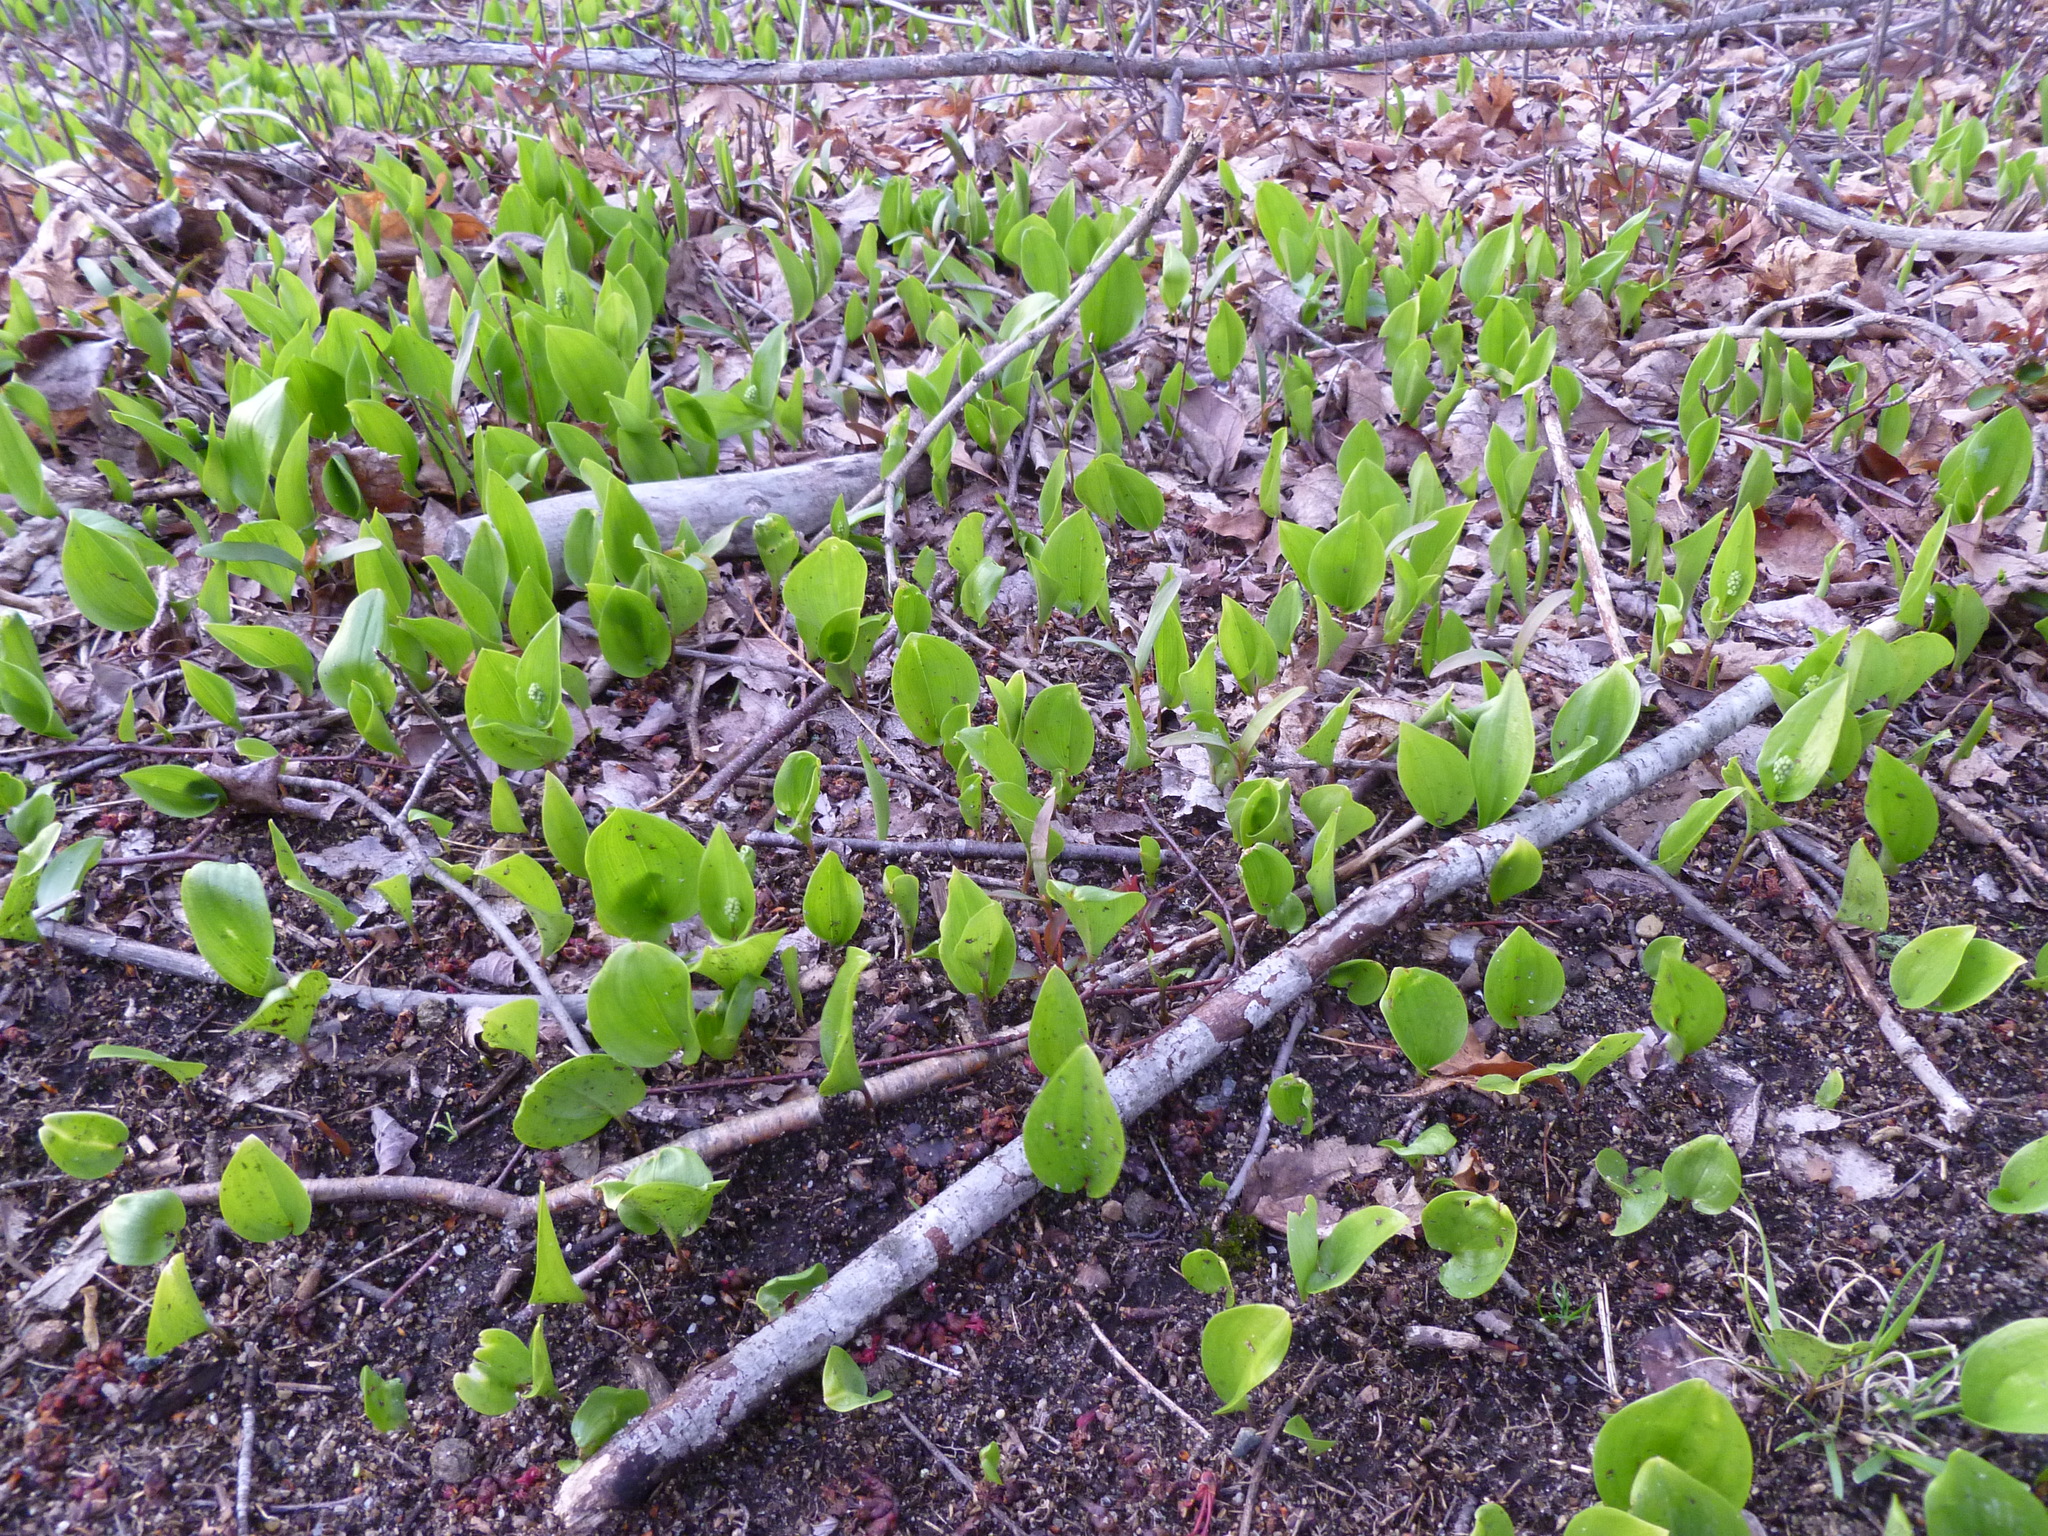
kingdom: Plantae
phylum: Tracheophyta
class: Liliopsida
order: Asparagales
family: Asparagaceae
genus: Maianthemum
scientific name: Maianthemum canadense
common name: False lily-of-the-valley
